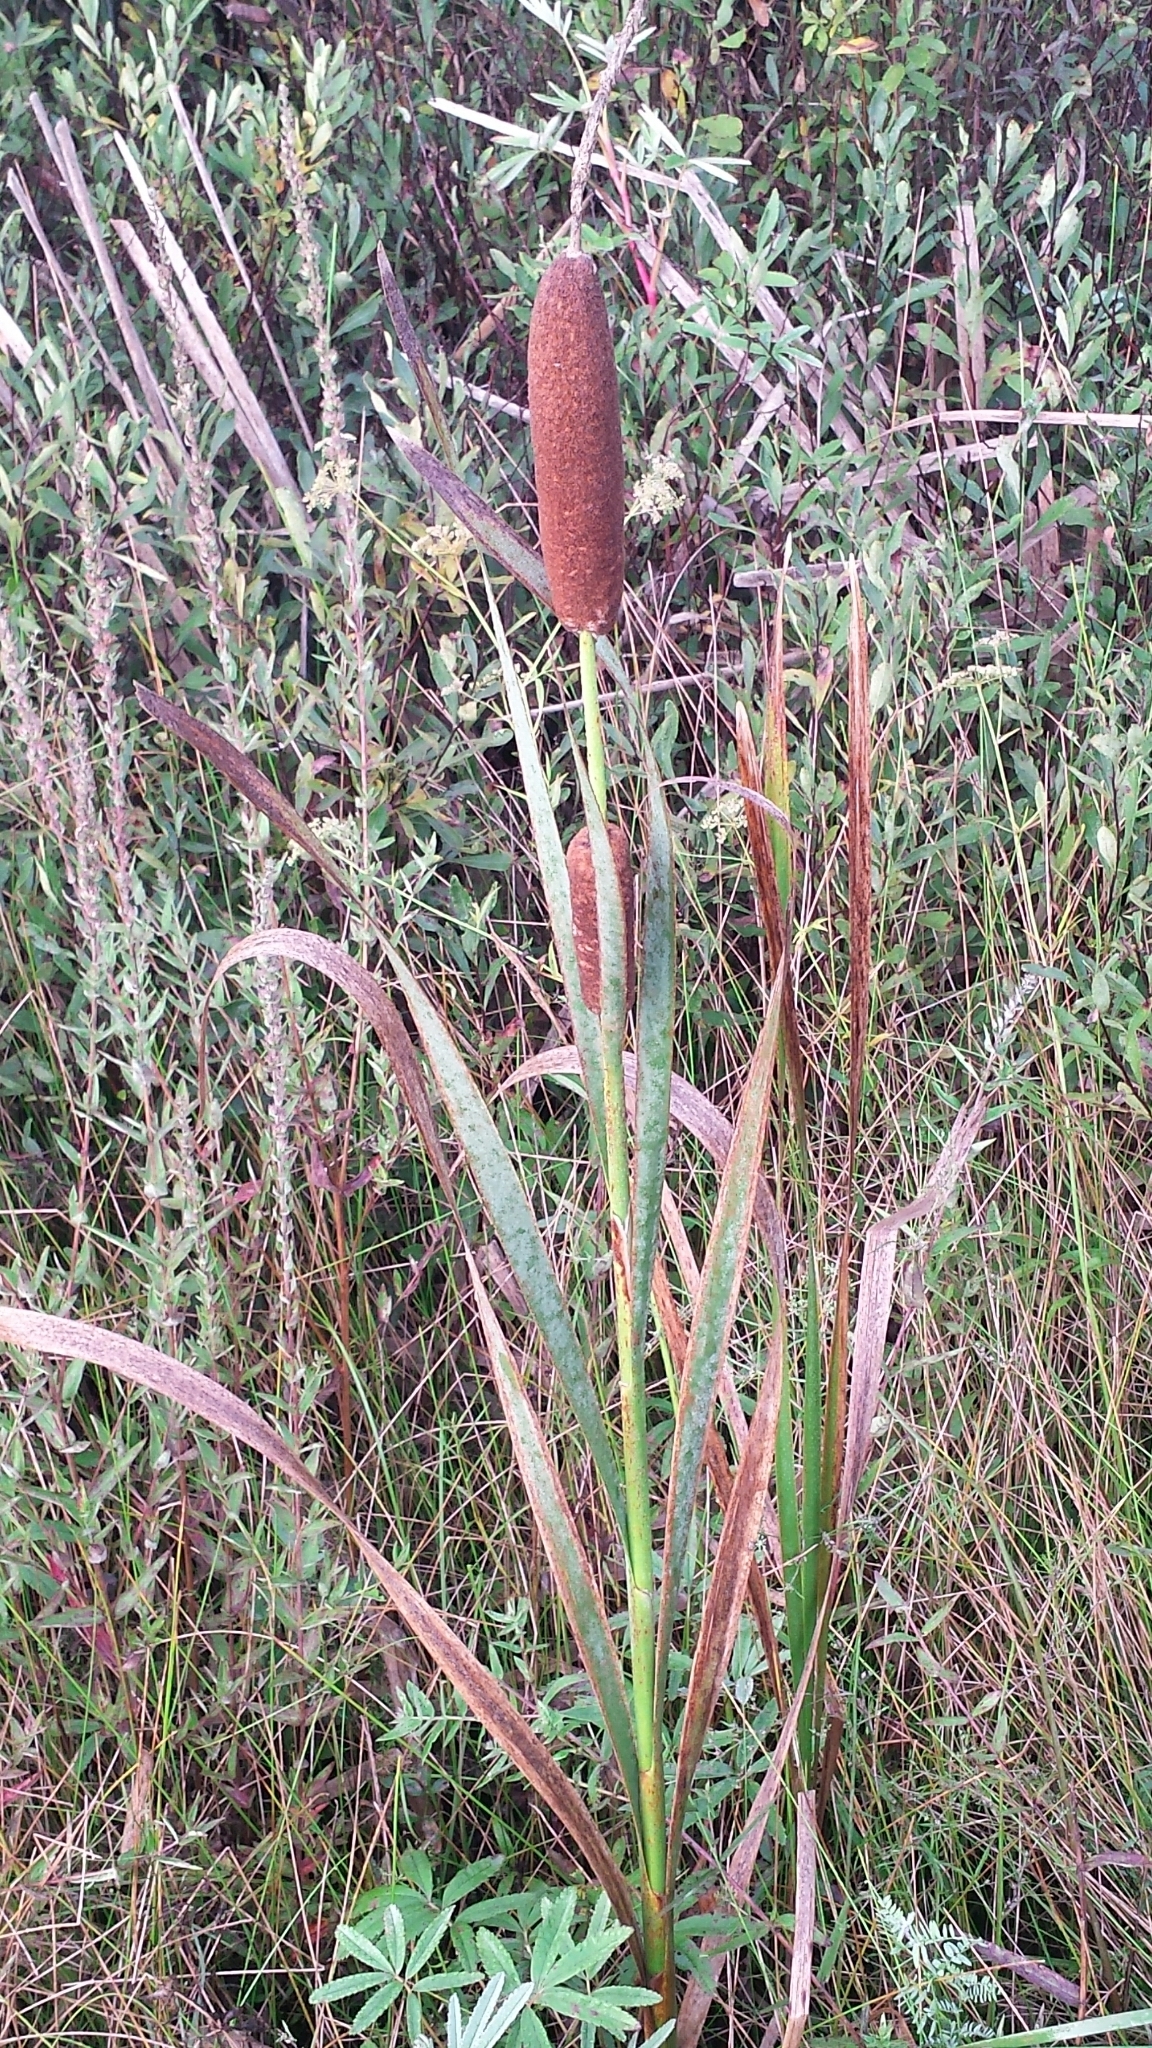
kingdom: Plantae
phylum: Tracheophyta
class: Liliopsida
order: Poales
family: Typhaceae
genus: Typha
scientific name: Typha latifolia
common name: Broadleaf cattail
